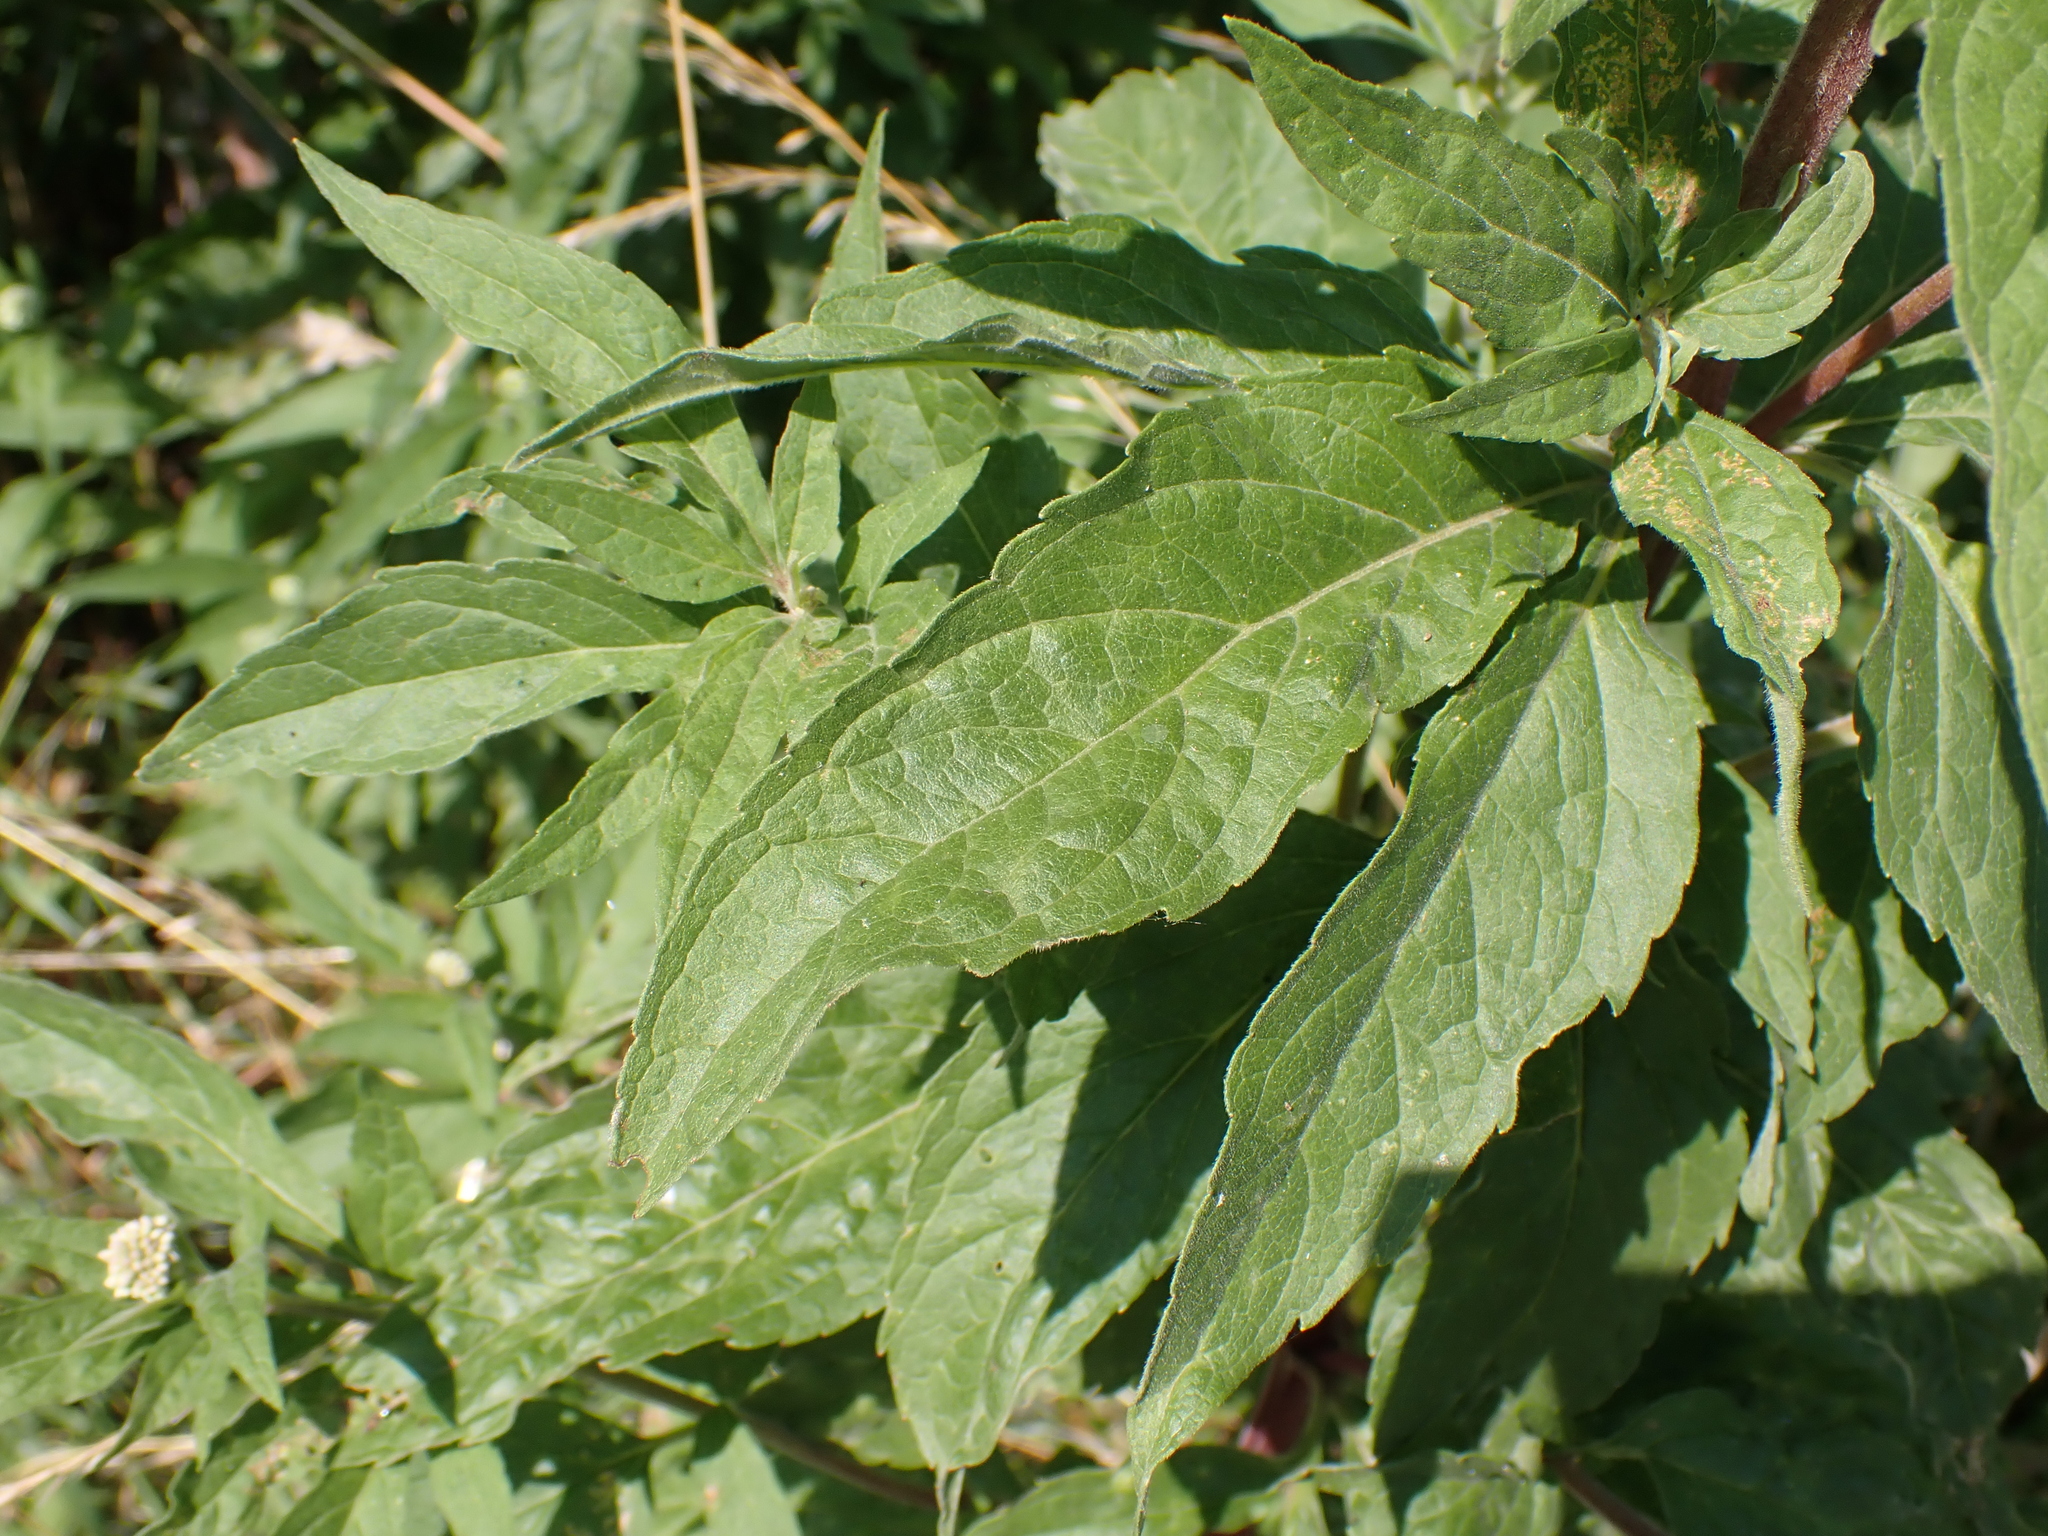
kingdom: Plantae
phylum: Tracheophyta
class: Magnoliopsida
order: Asterales
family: Asteraceae
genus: Eupatorium
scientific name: Eupatorium cannabinum
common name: Hemp-agrimony
